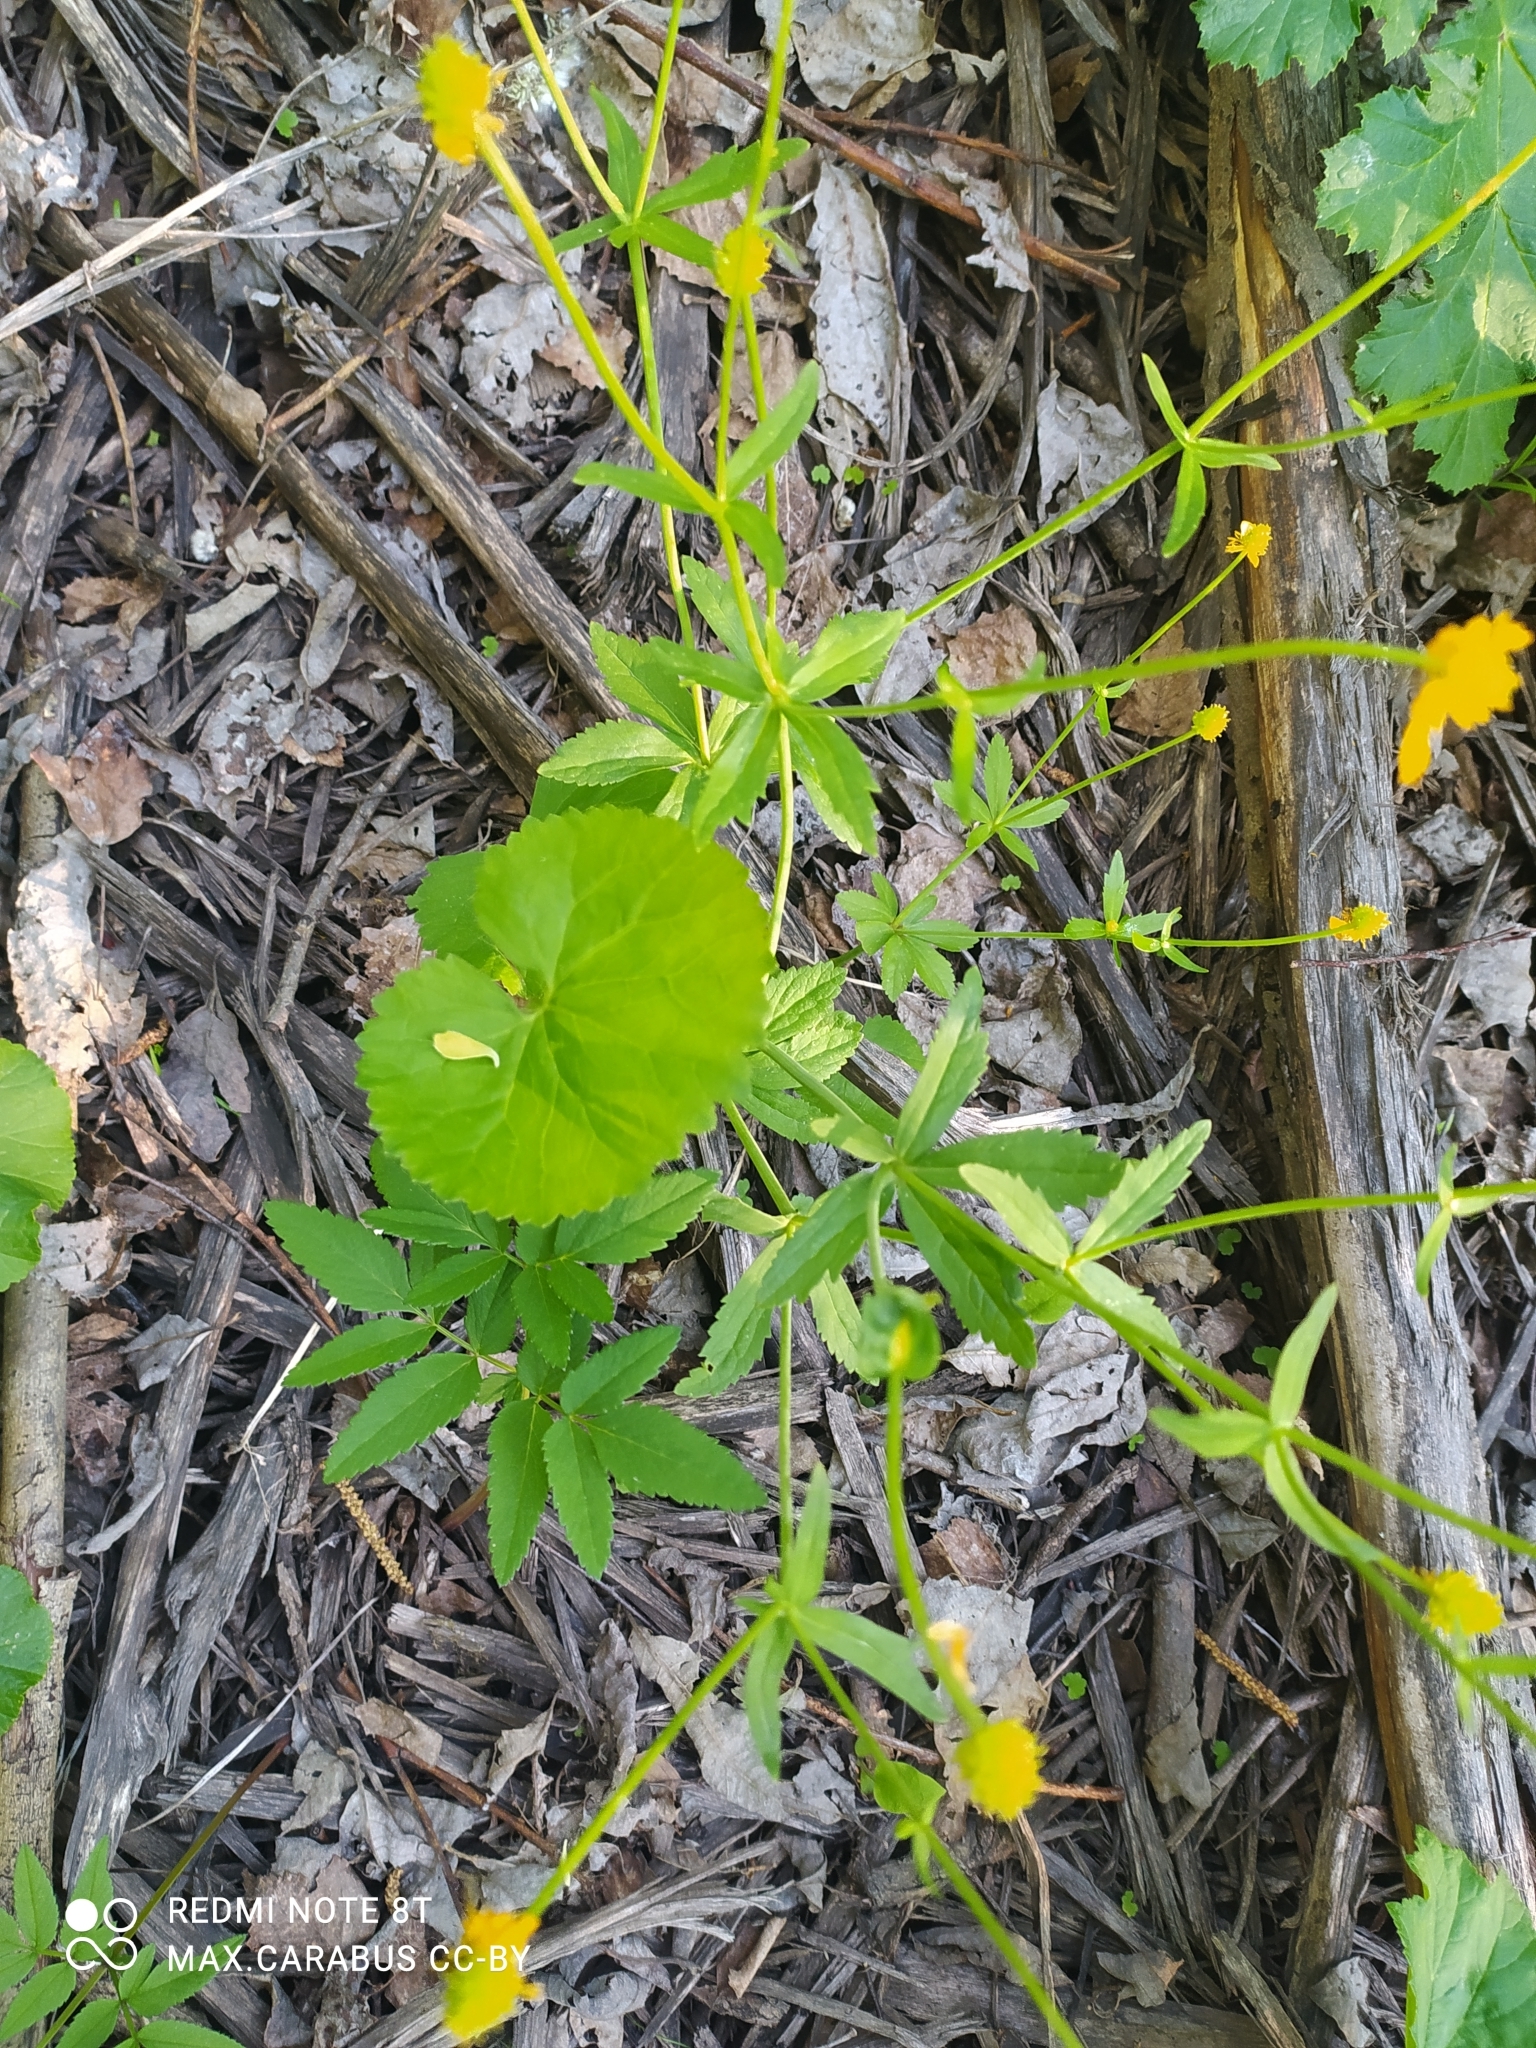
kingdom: Plantae
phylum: Tracheophyta
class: Magnoliopsida
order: Ranunculales
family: Ranunculaceae
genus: Ranunculus
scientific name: Ranunculus cassubicus
